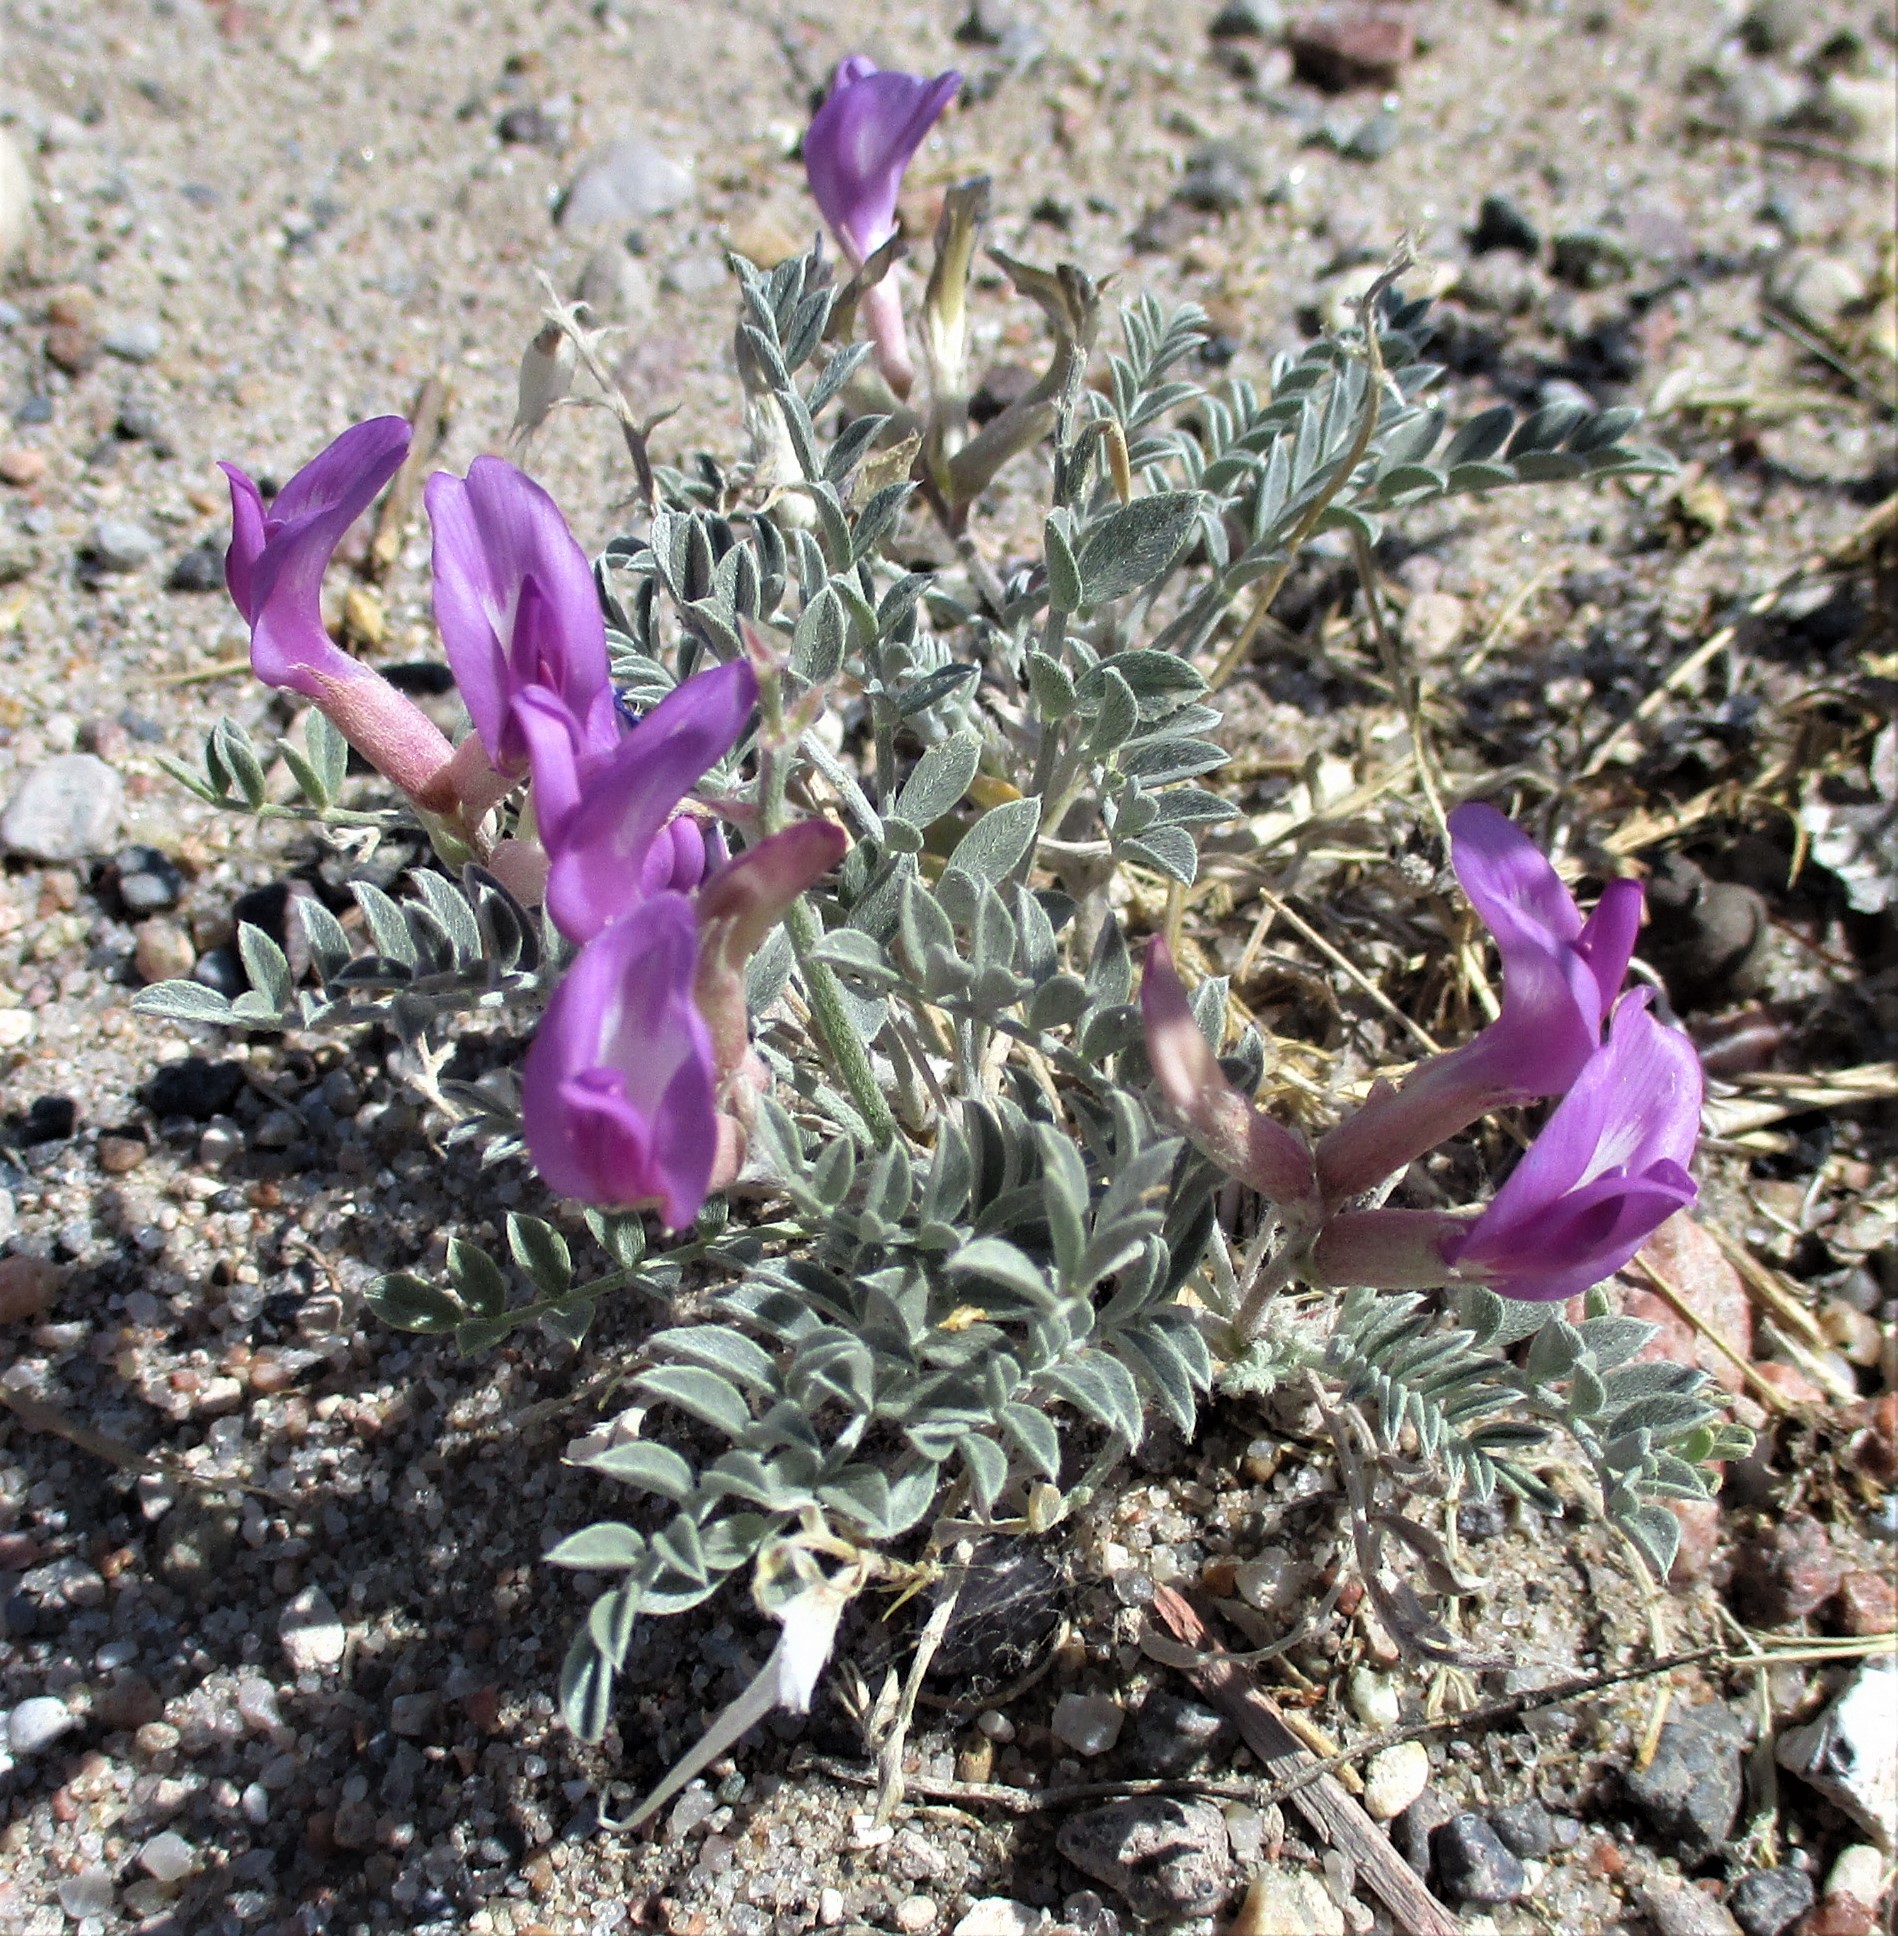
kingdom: Plantae
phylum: Tracheophyta
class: Magnoliopsida
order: Fabales
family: Fabaceae
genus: Astragalus
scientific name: Astragalus amphioxys
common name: Crescent milk-vetch
